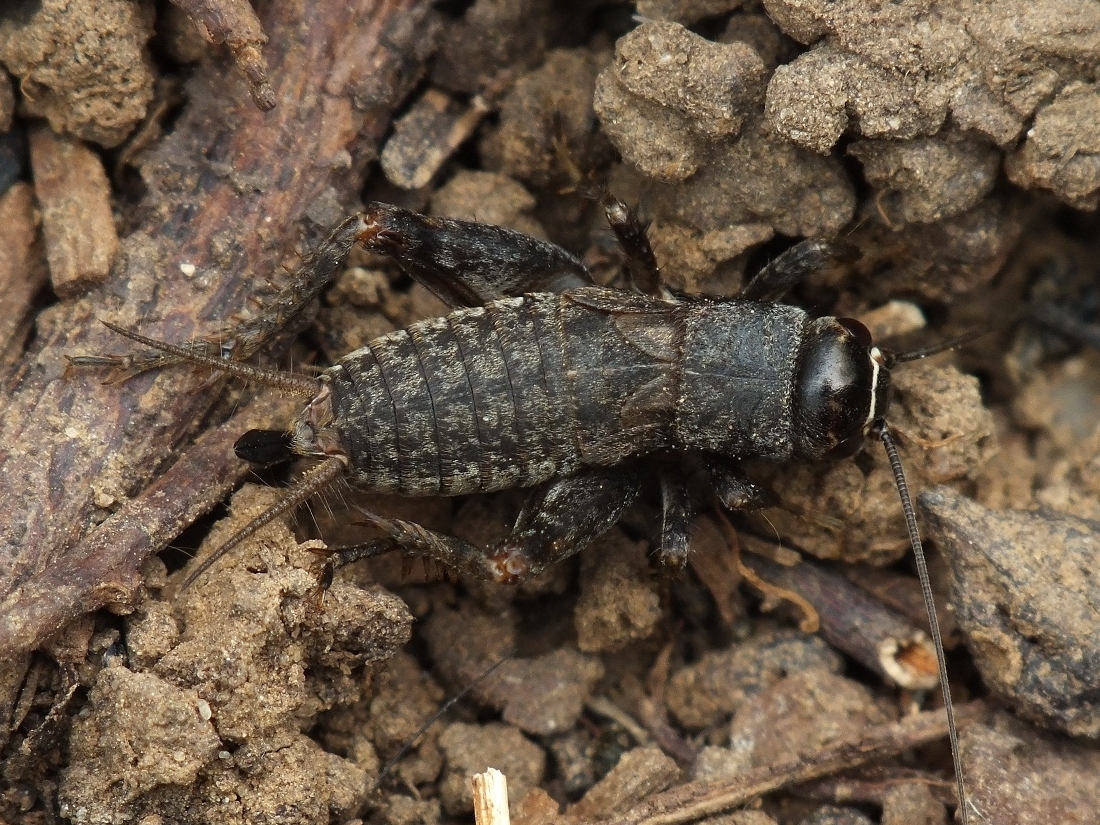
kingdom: Animalia
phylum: Arthropoda
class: Insecta
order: Orthoptera
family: Gryllidae
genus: Modicogryllus
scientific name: Modicogryllus frontalis
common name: Eastern cricket
